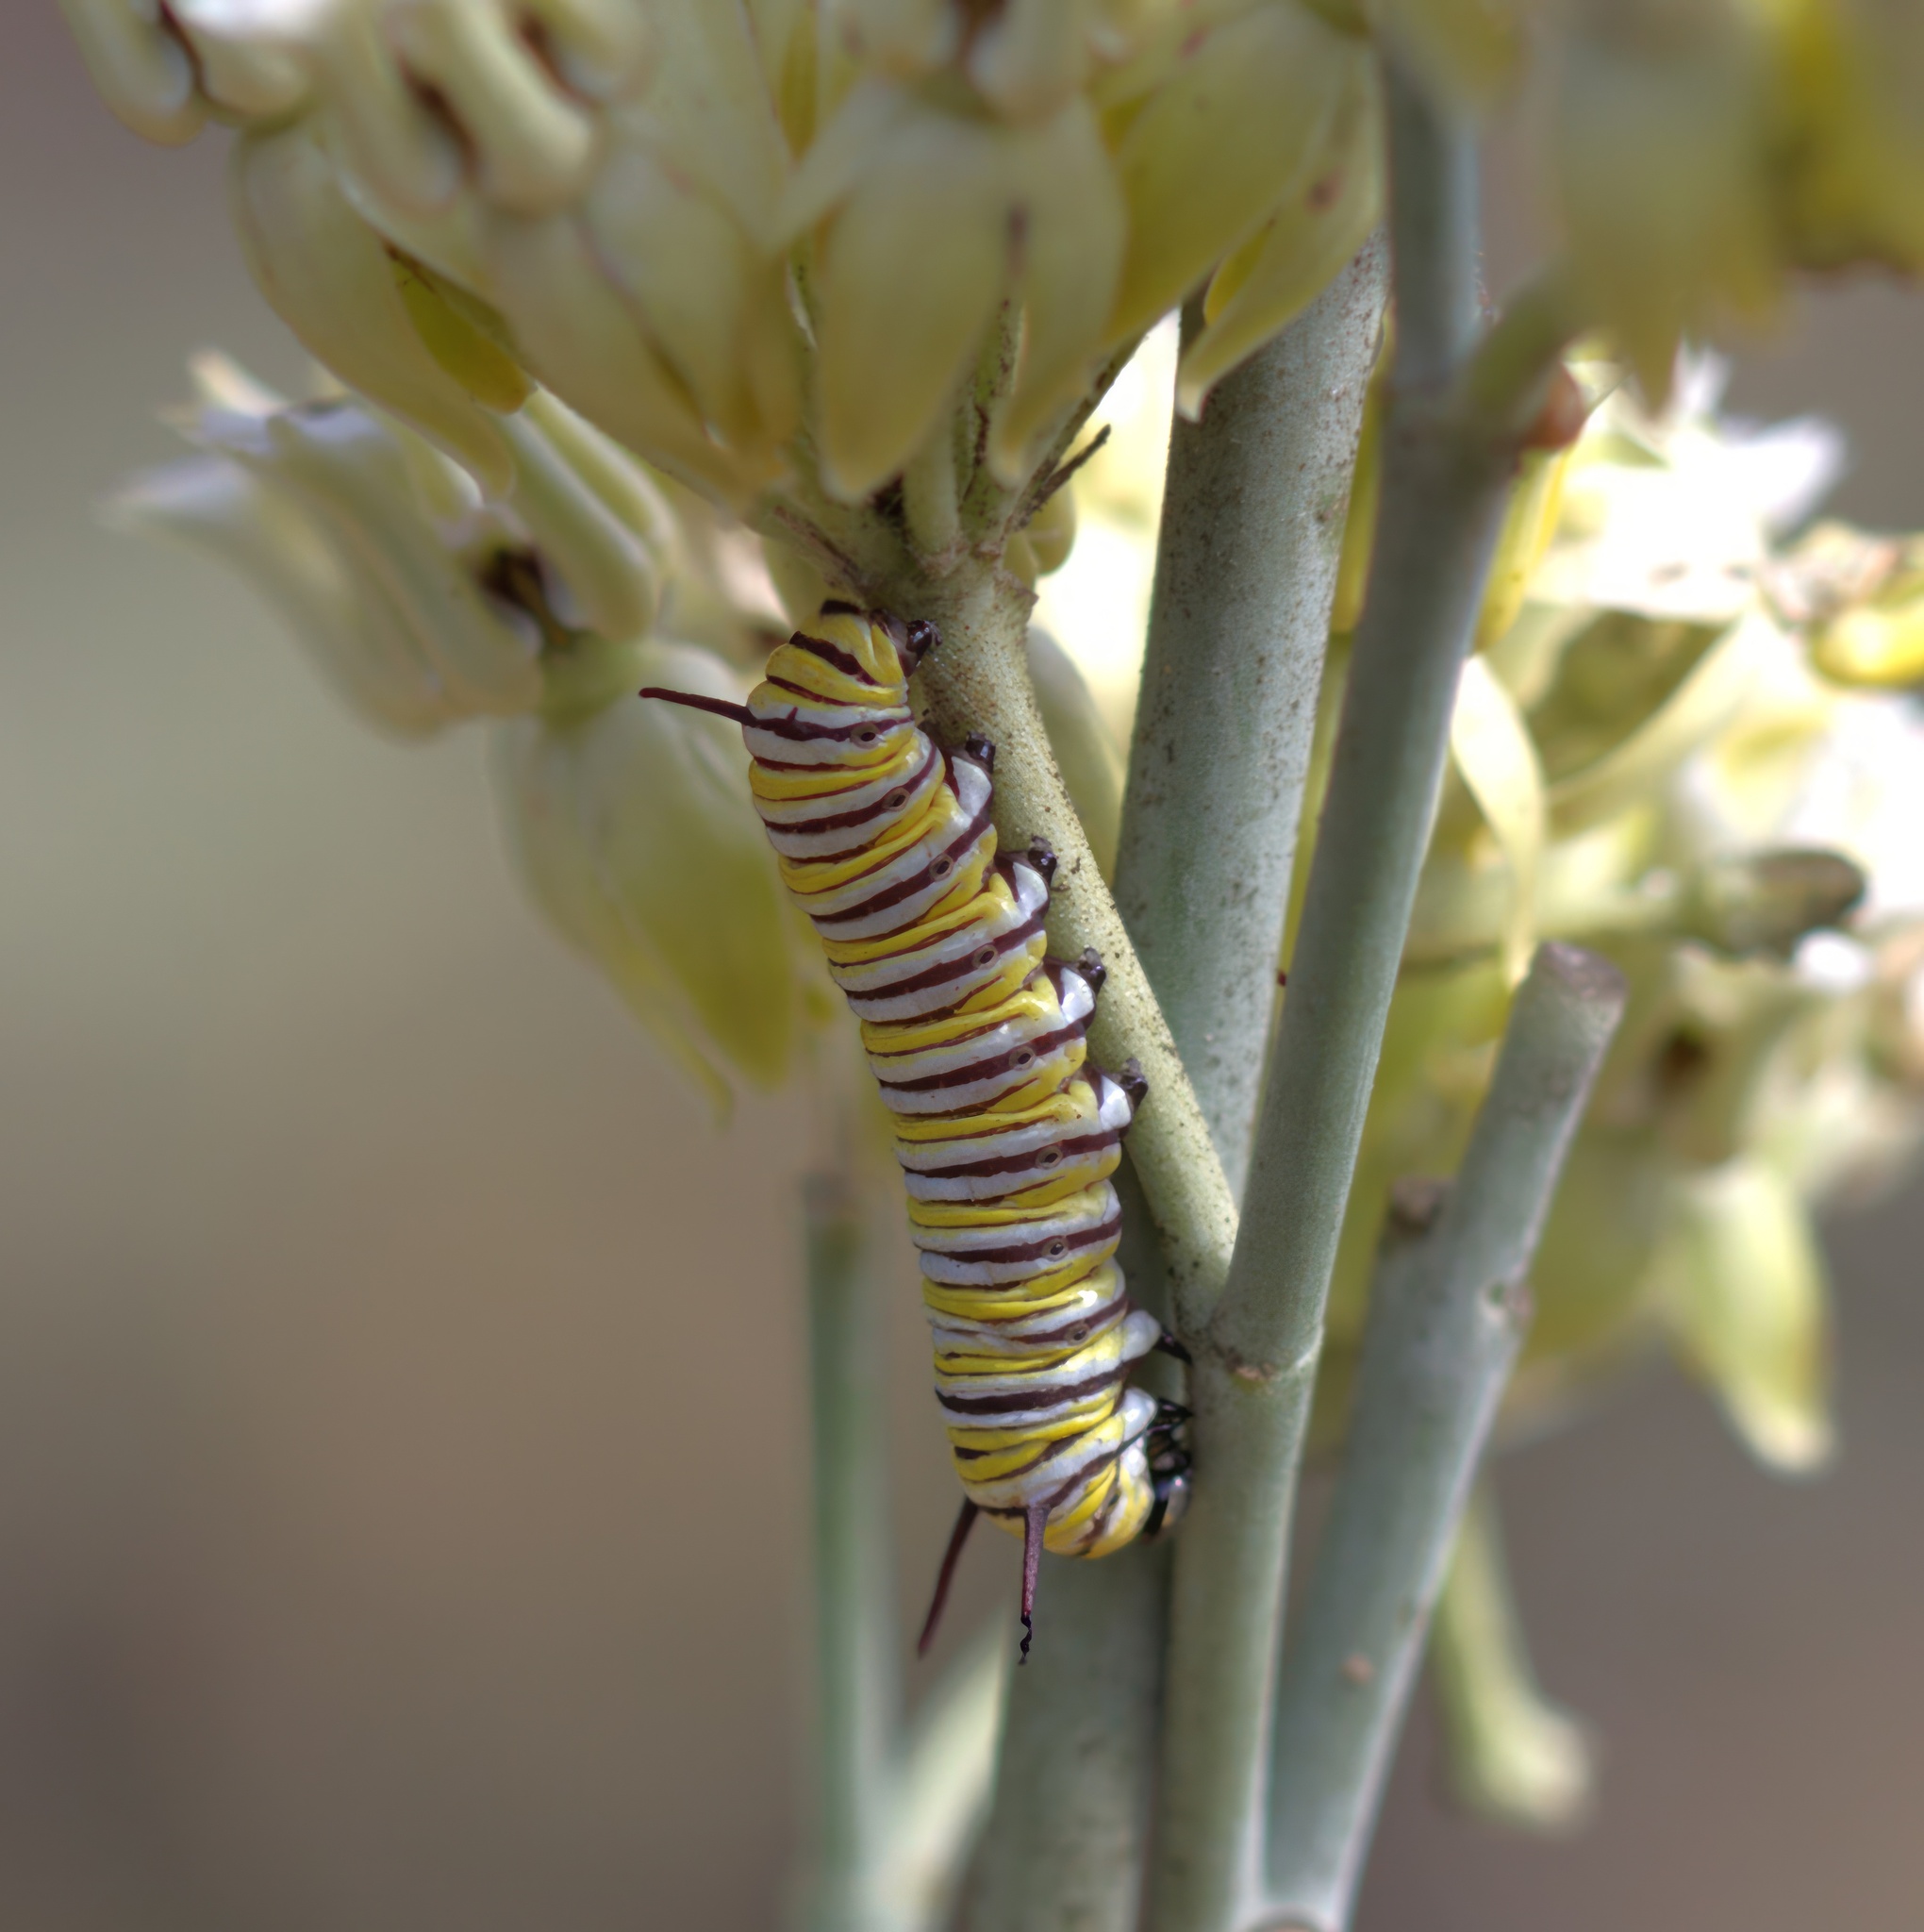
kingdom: Animalia
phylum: Arthropoda
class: Insecta
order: Lepidoptera
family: Nymphalidae
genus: Danaus
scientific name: Danaus plexippus
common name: Monarch
